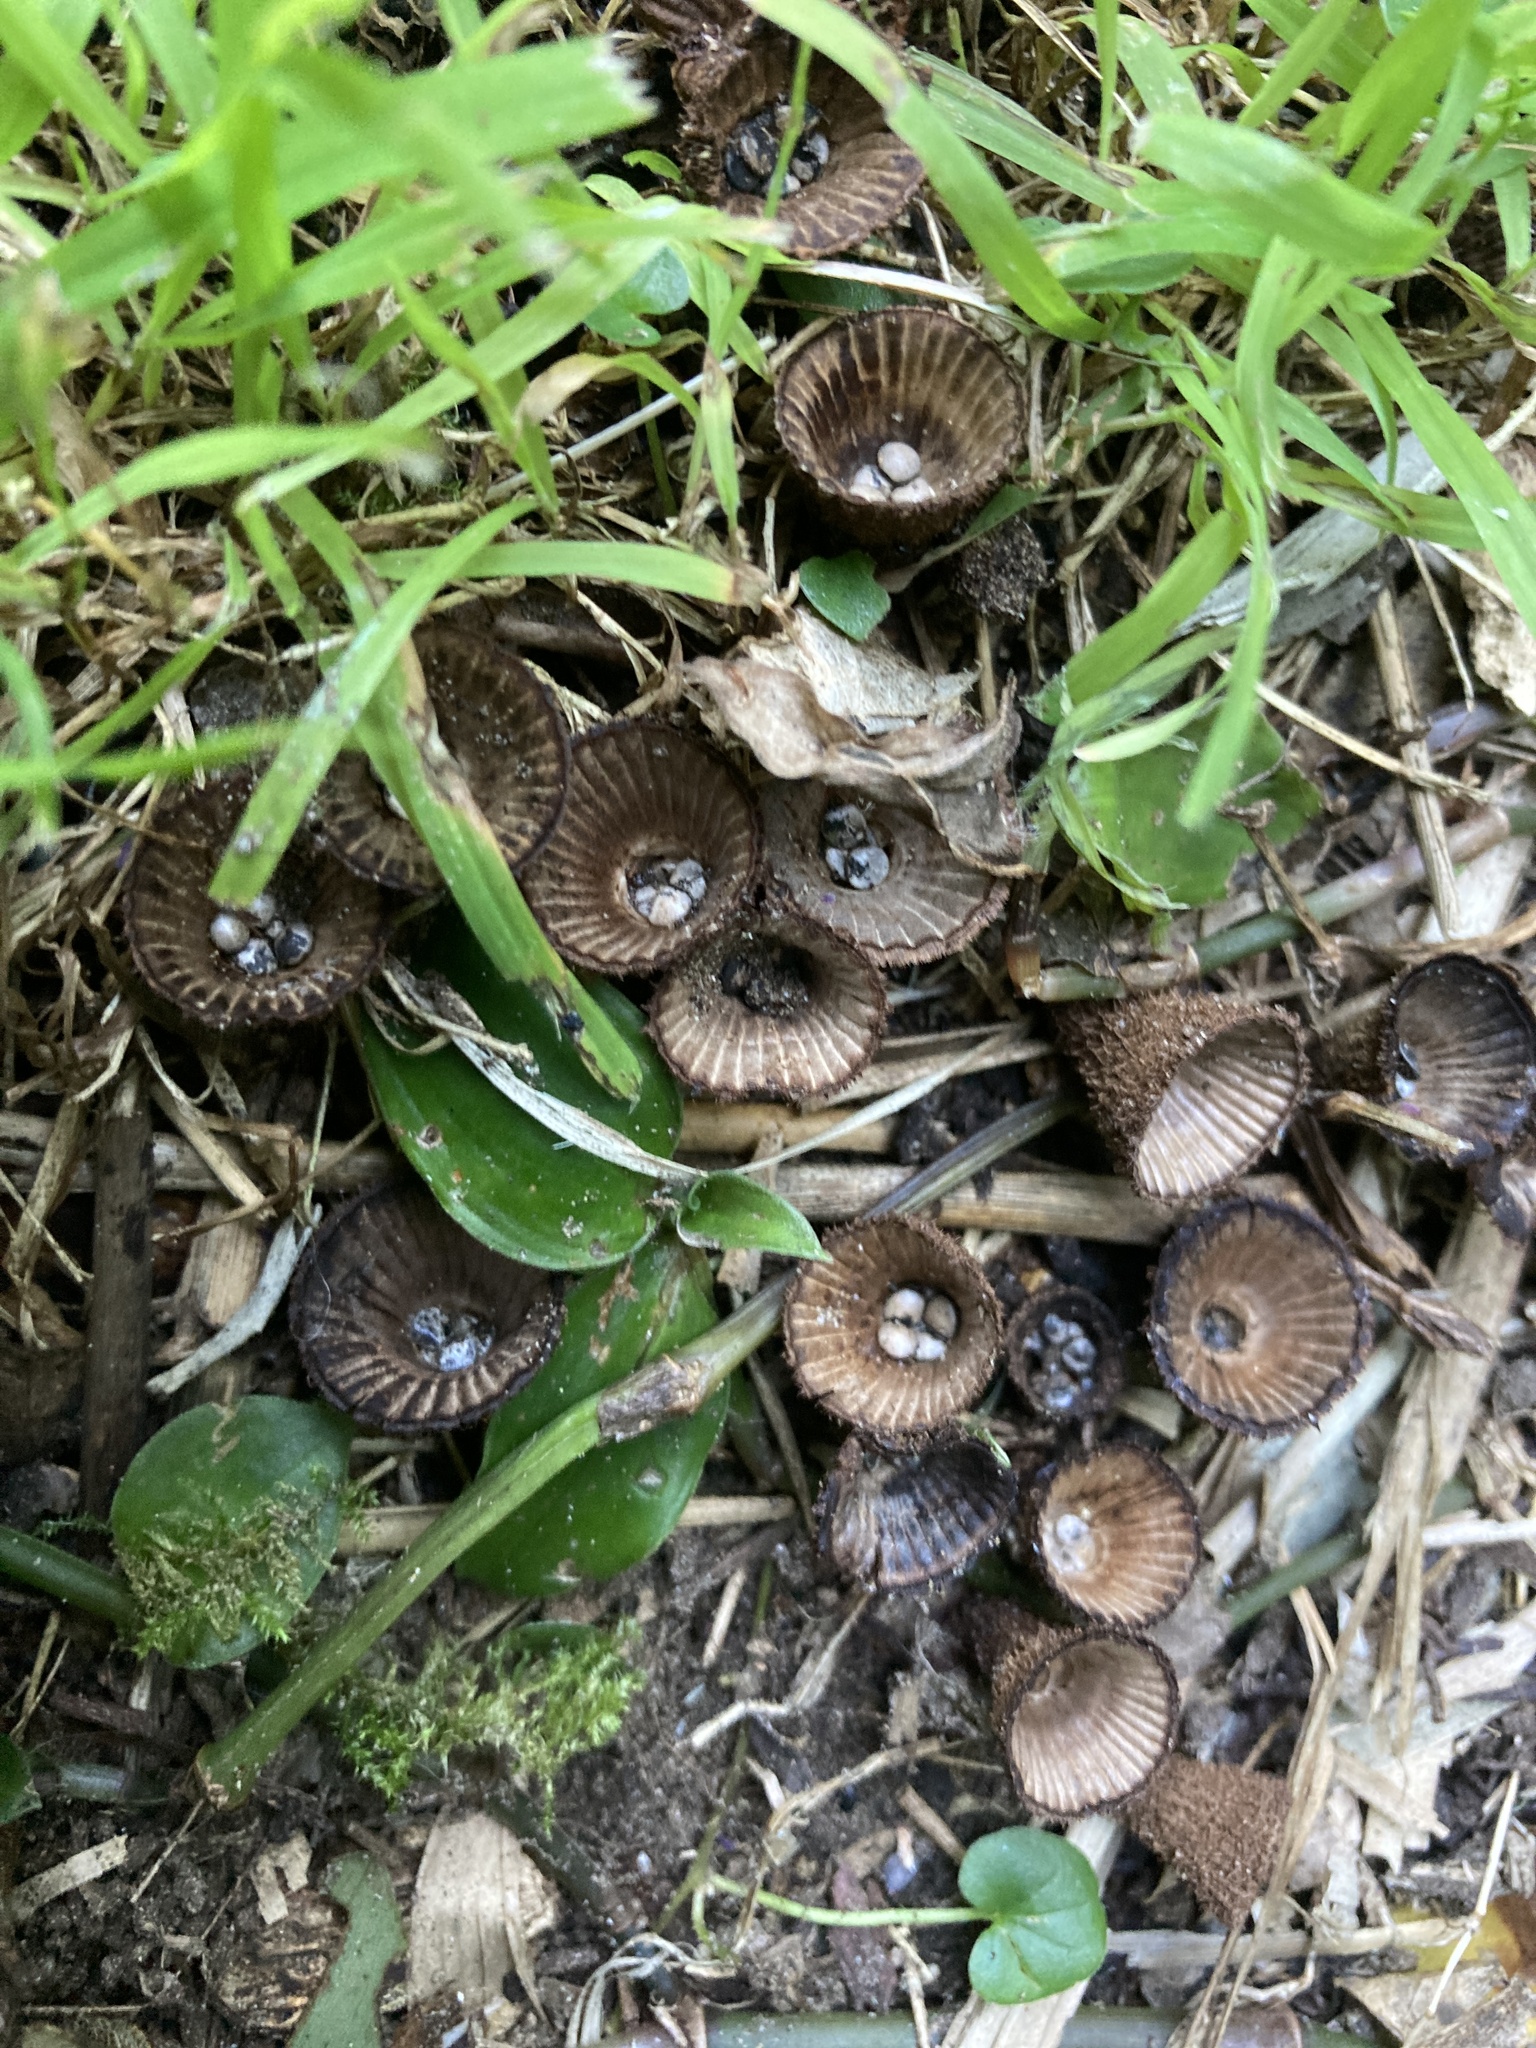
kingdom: Fungi
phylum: Basidiomycota
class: Agaricomycetes
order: Agaricales
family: Agaricaceae
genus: Cyathus
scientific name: Cyathus striatus
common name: Fluted bird's nest
